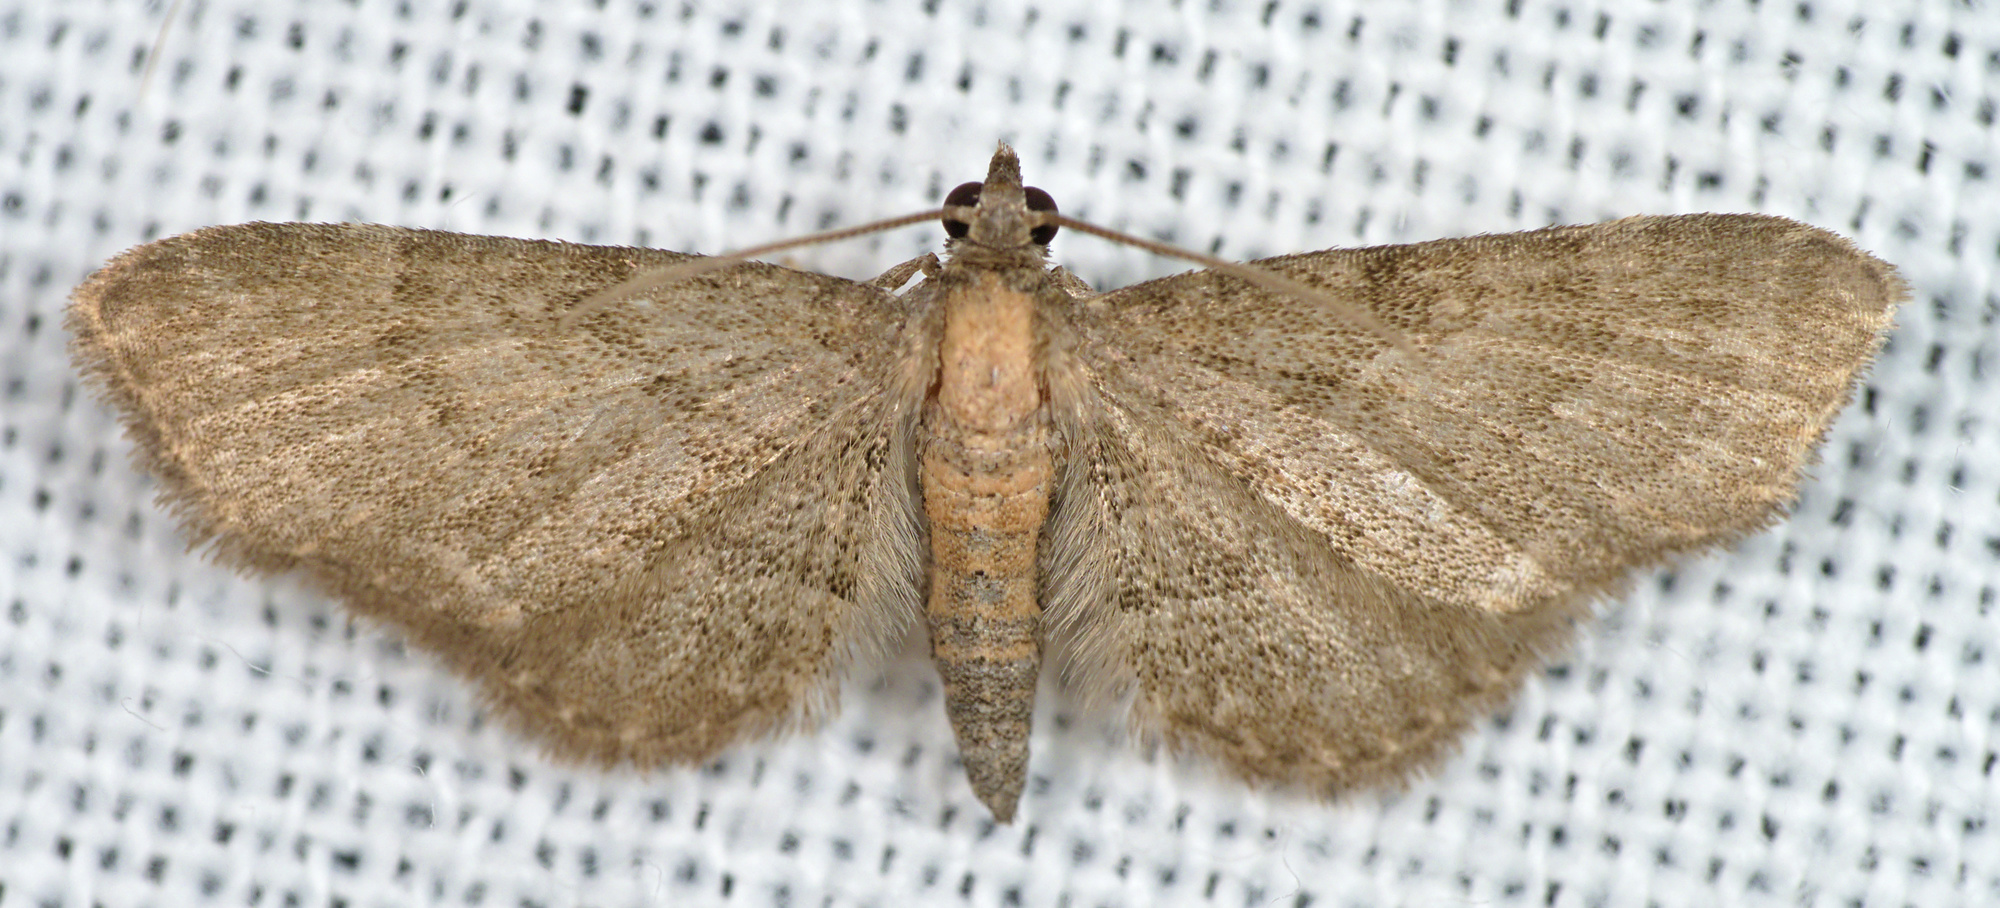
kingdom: Animalia
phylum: Arthropoda
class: Insecta
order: Lepidoptera
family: Geometridae
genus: Eupithecia
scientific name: Eupithecia haworthiata
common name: Haworth's pug
